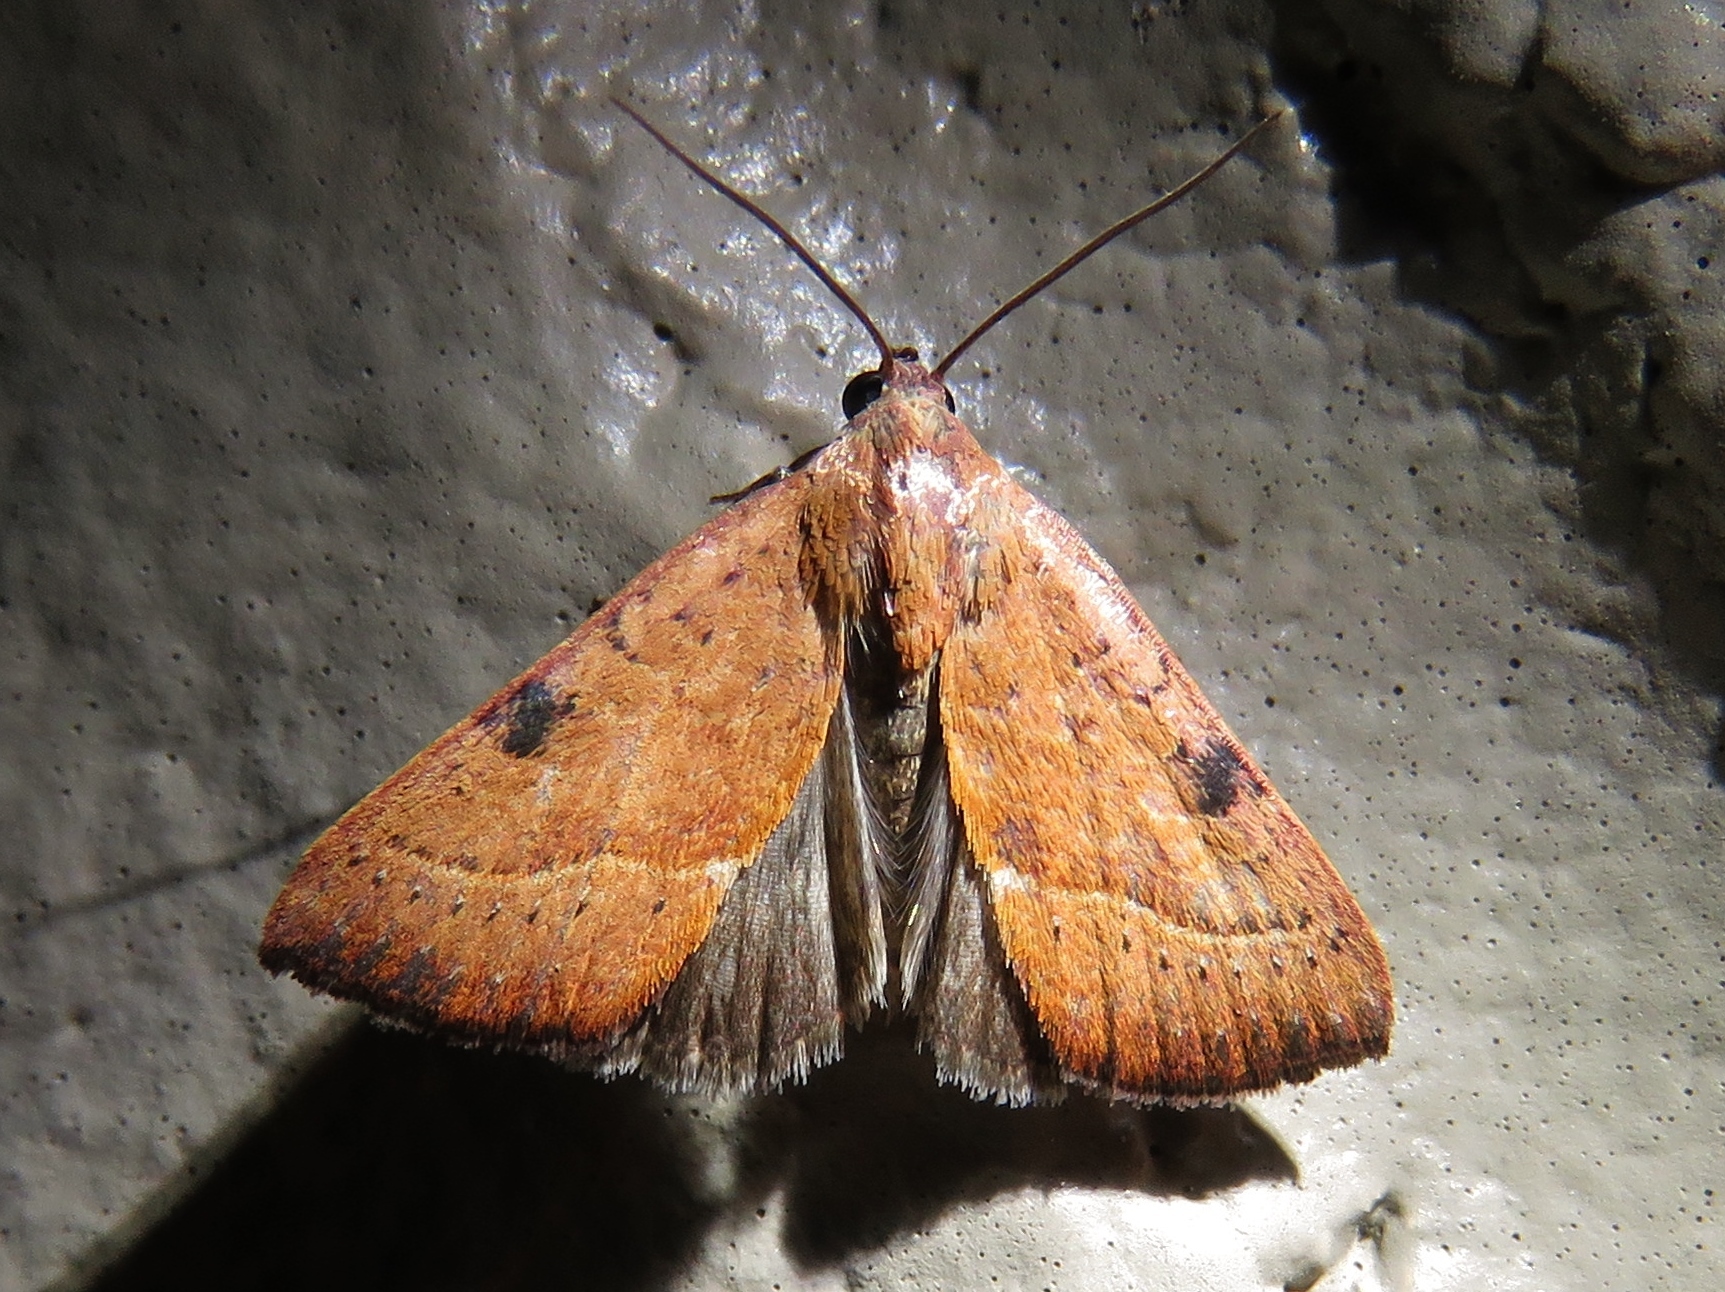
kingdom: Animalia
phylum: Arthropoda
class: Insecta
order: Lepidoptera
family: Noctuidae
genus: Galgula
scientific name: Galgula partita
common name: Wedgeling
